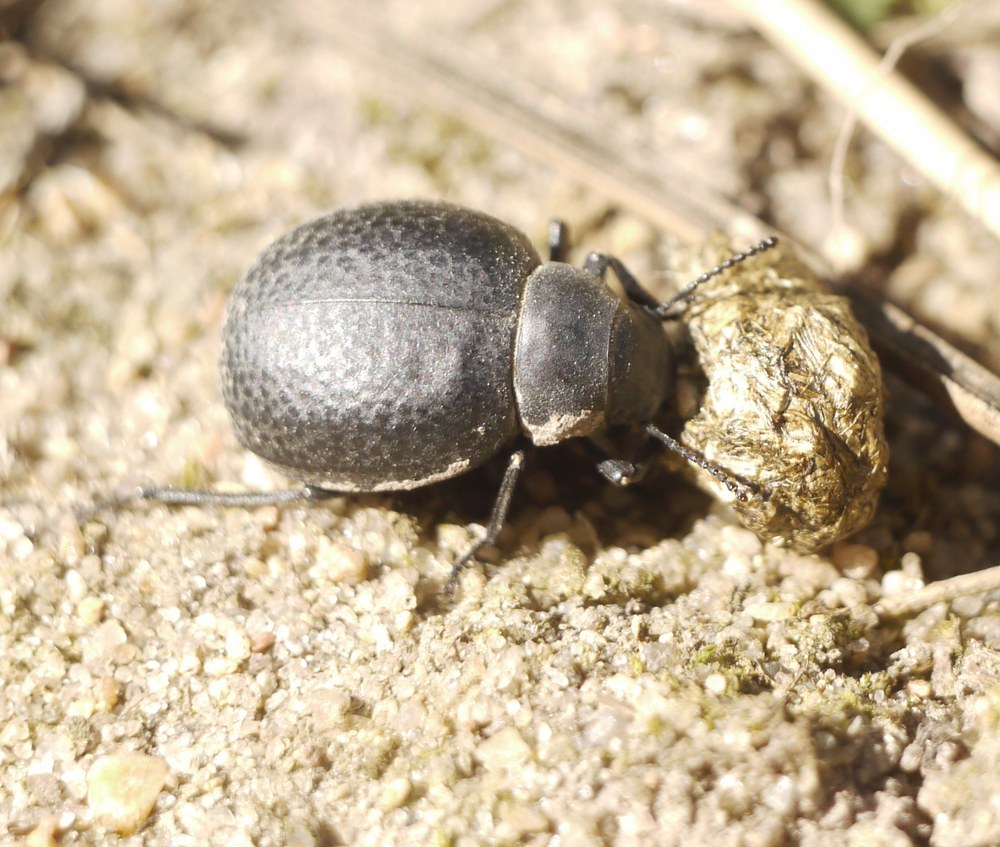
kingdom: Animalia
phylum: Arthropoda
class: Insecta
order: Coleoptera
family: Tenebrionidae
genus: Pimelia
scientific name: Pimelia subglobosa
